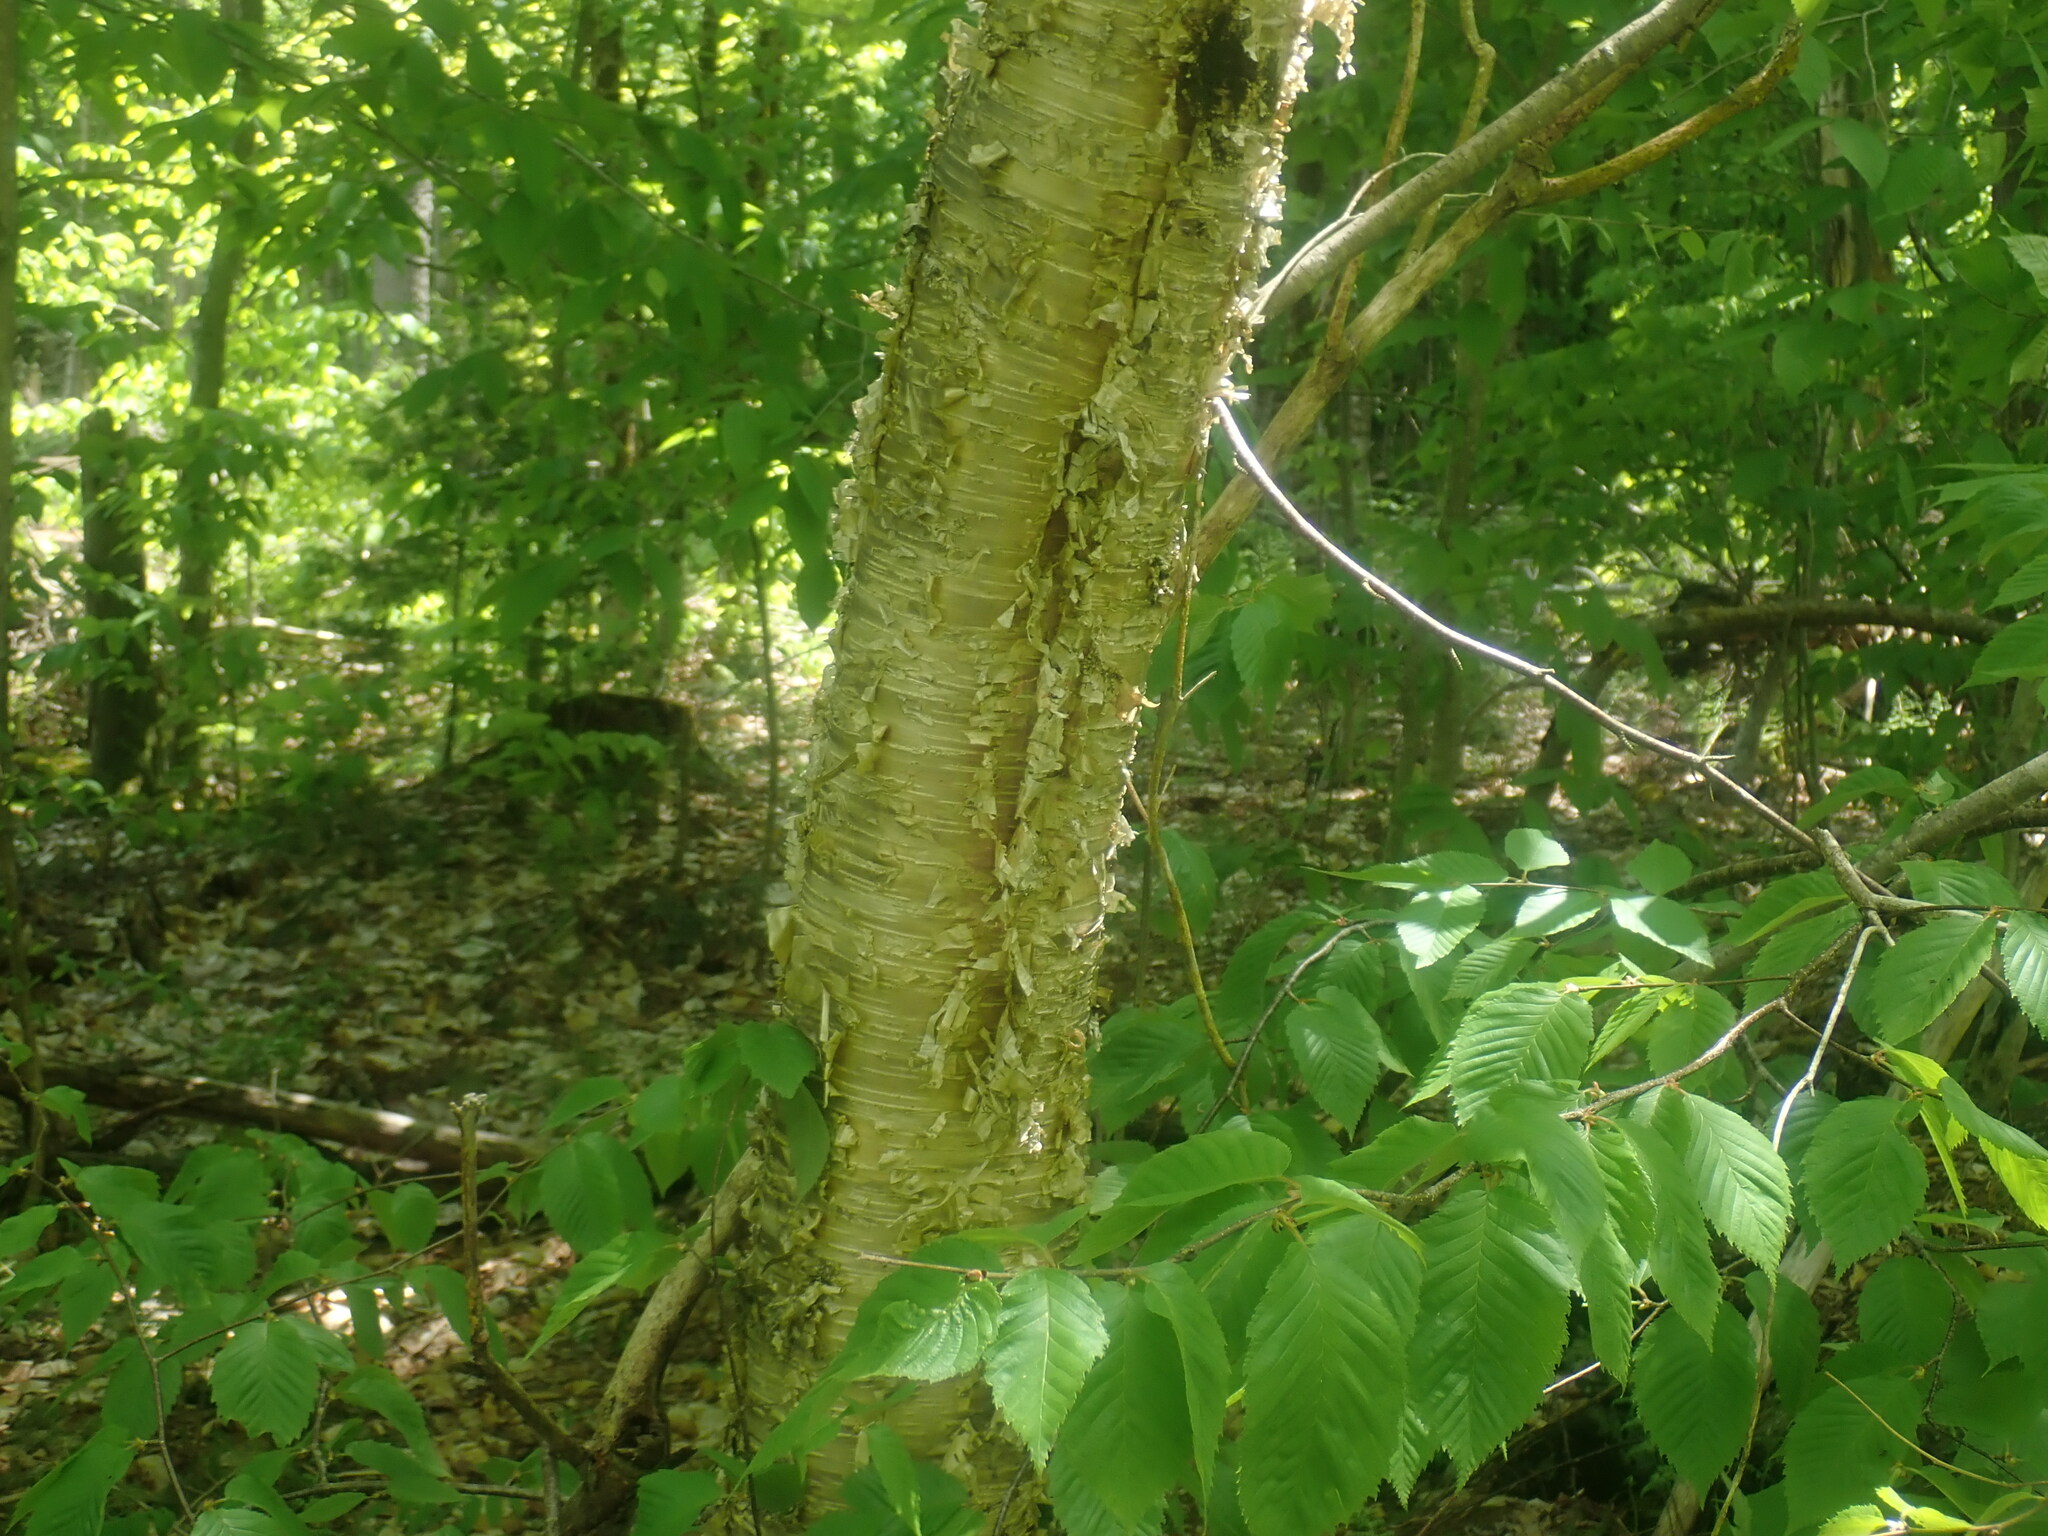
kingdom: Plantae
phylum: Tracheophyta
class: Magnoliopsida
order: Fagales
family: Betulaceae
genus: Betula
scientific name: Betula alleghaniensis
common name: Yellow birch
